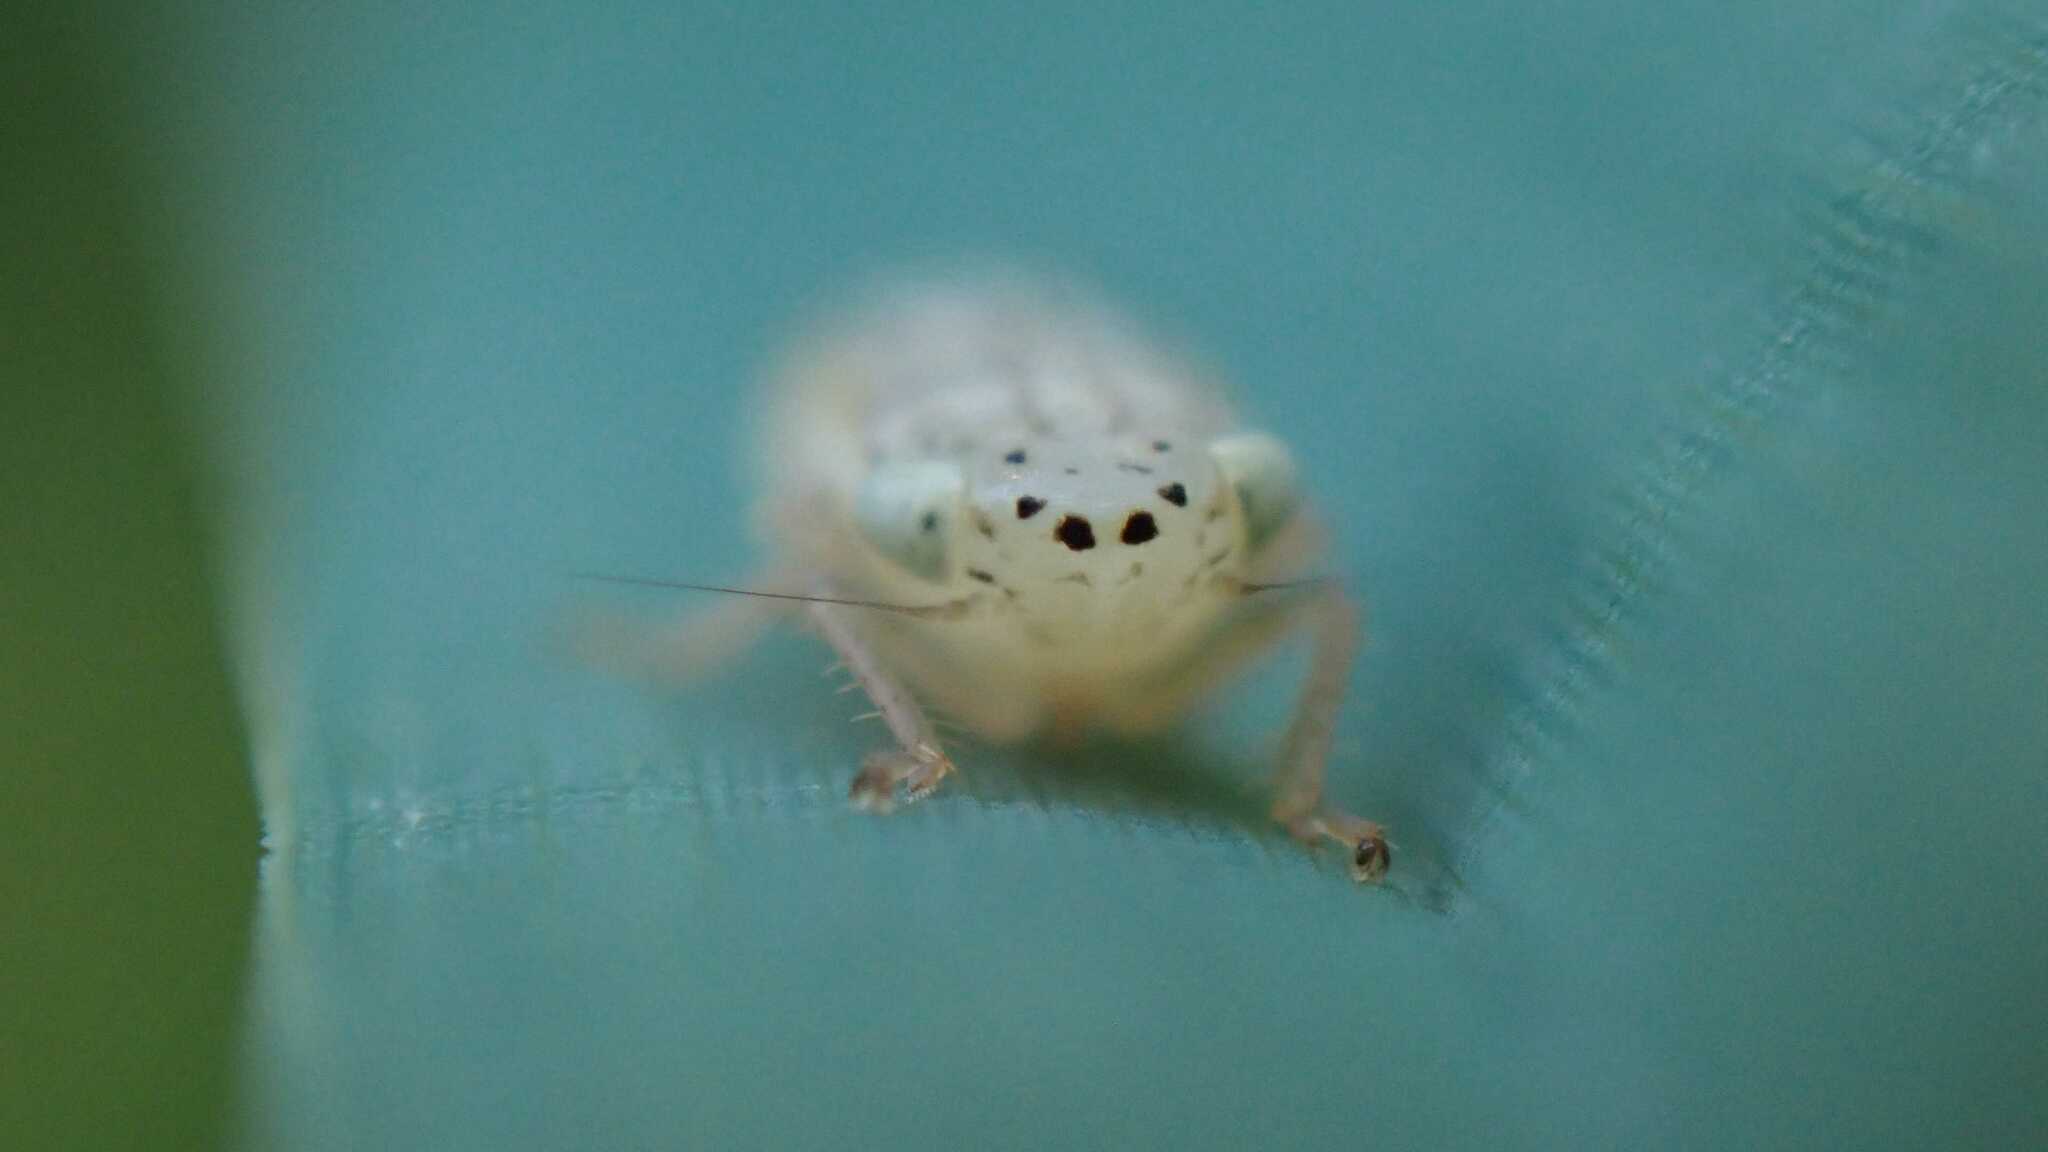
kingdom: Animalia
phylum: Arthropoda
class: Insecta
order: Hemiptera
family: Cicadellidae
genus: Allygus
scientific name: Allygus modestus
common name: Leafhopper
